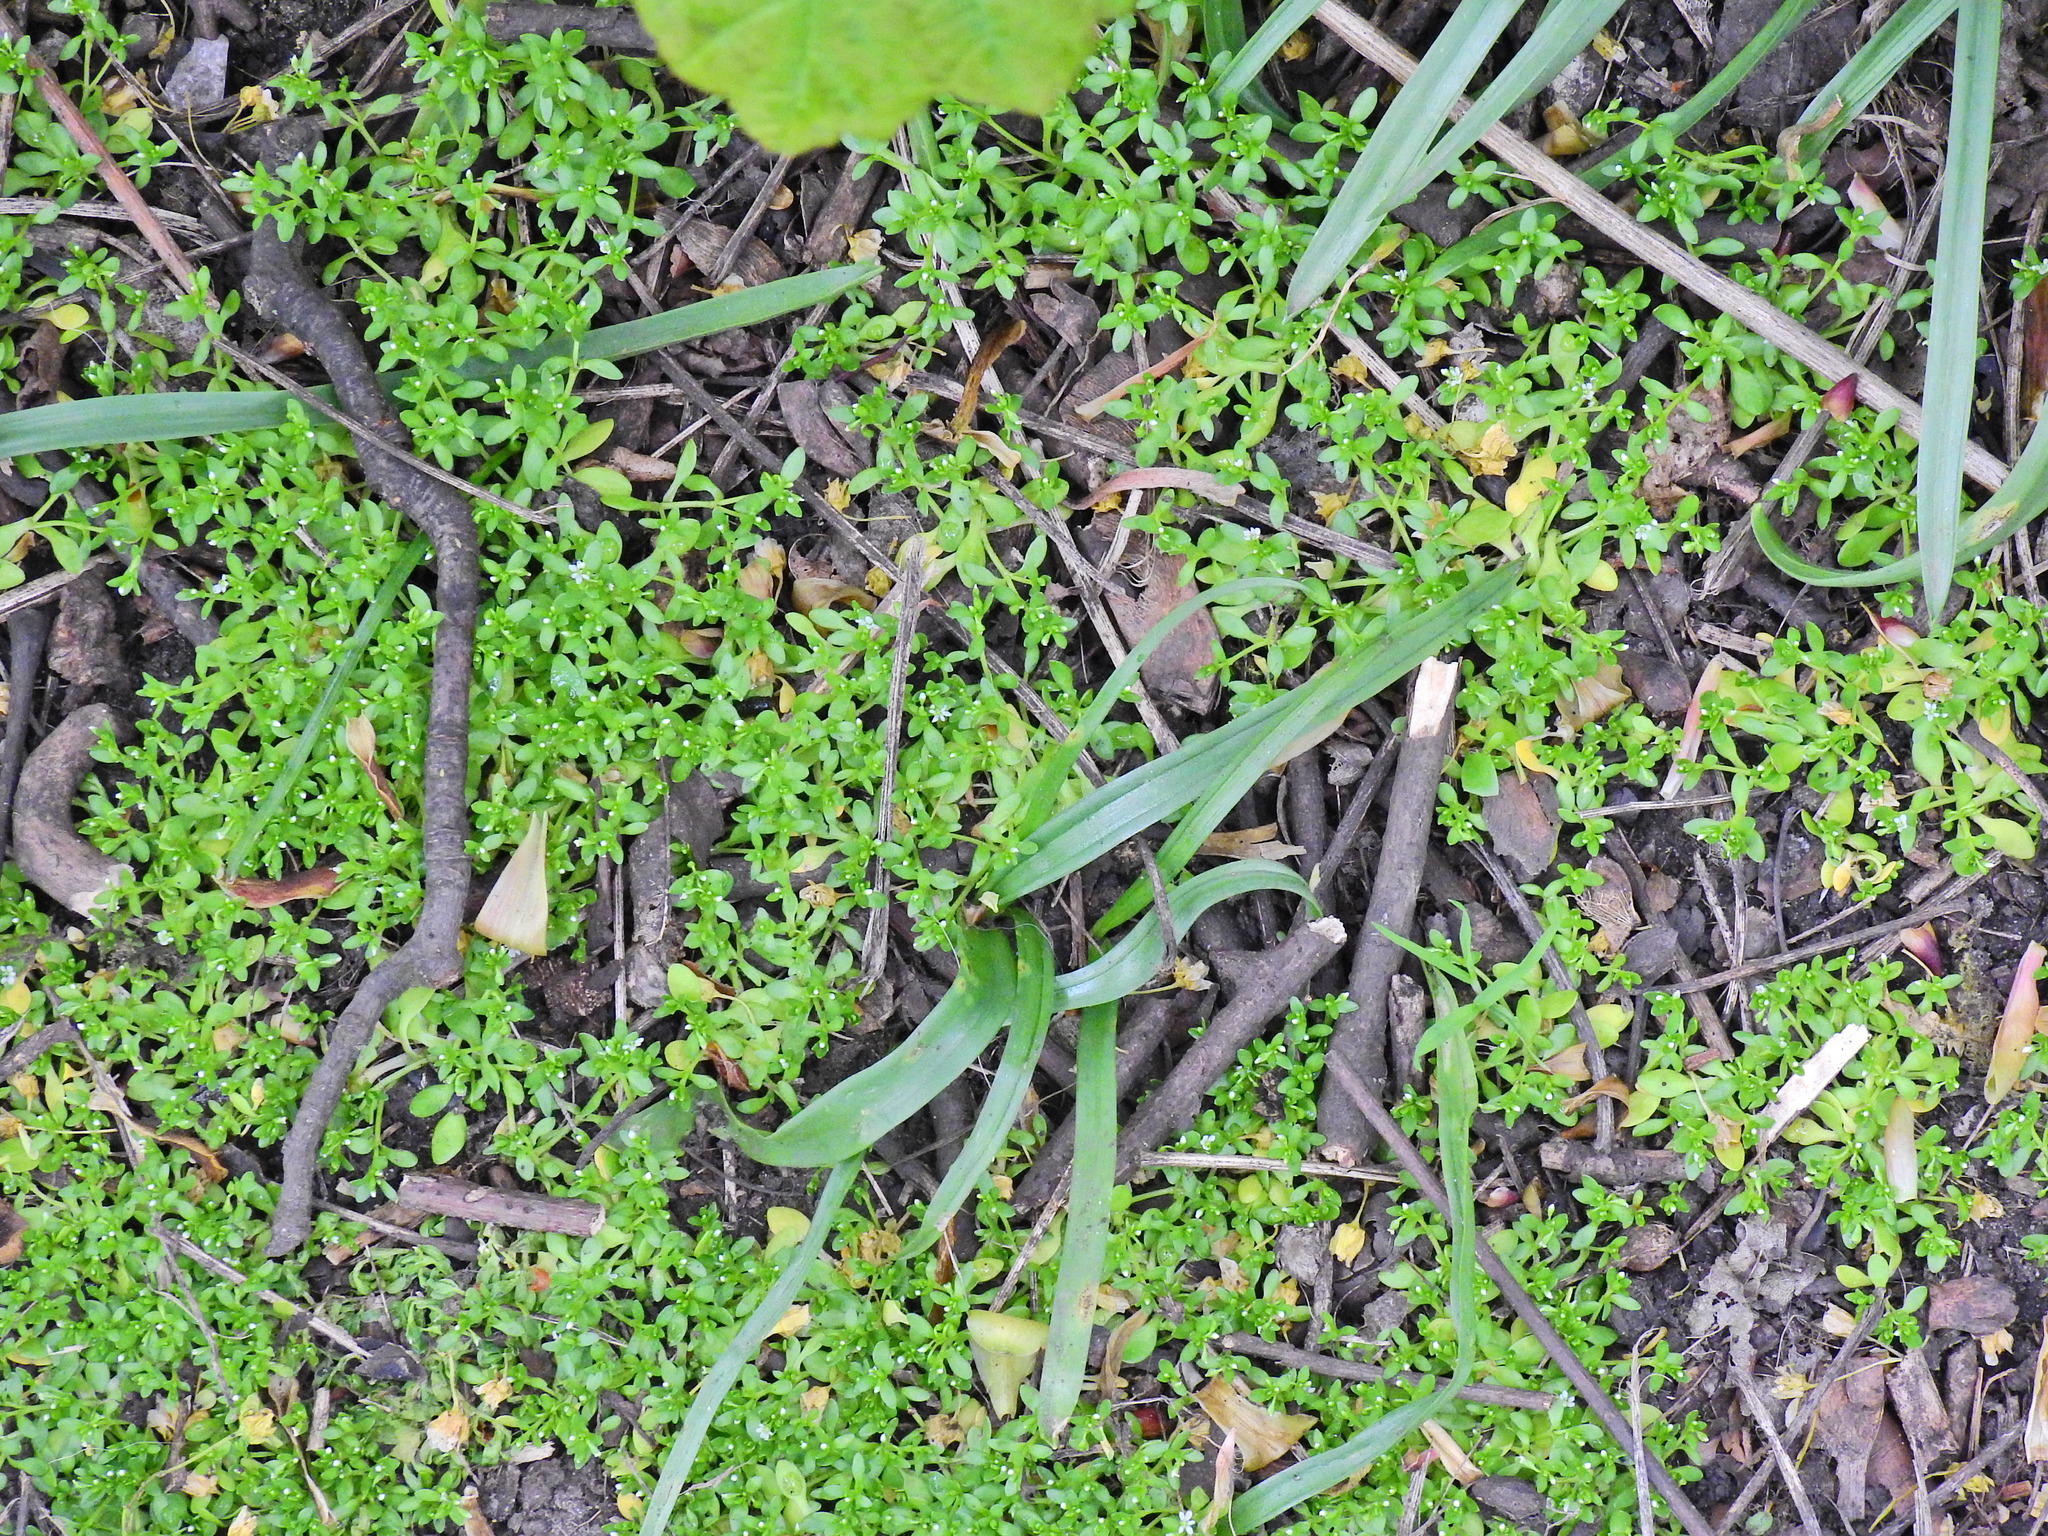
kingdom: Plantae
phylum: Tracheophyta
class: Magnoliopsida
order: Caryophyllales
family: Montiaceae
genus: Montia
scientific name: Montia fontana
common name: Blinks
